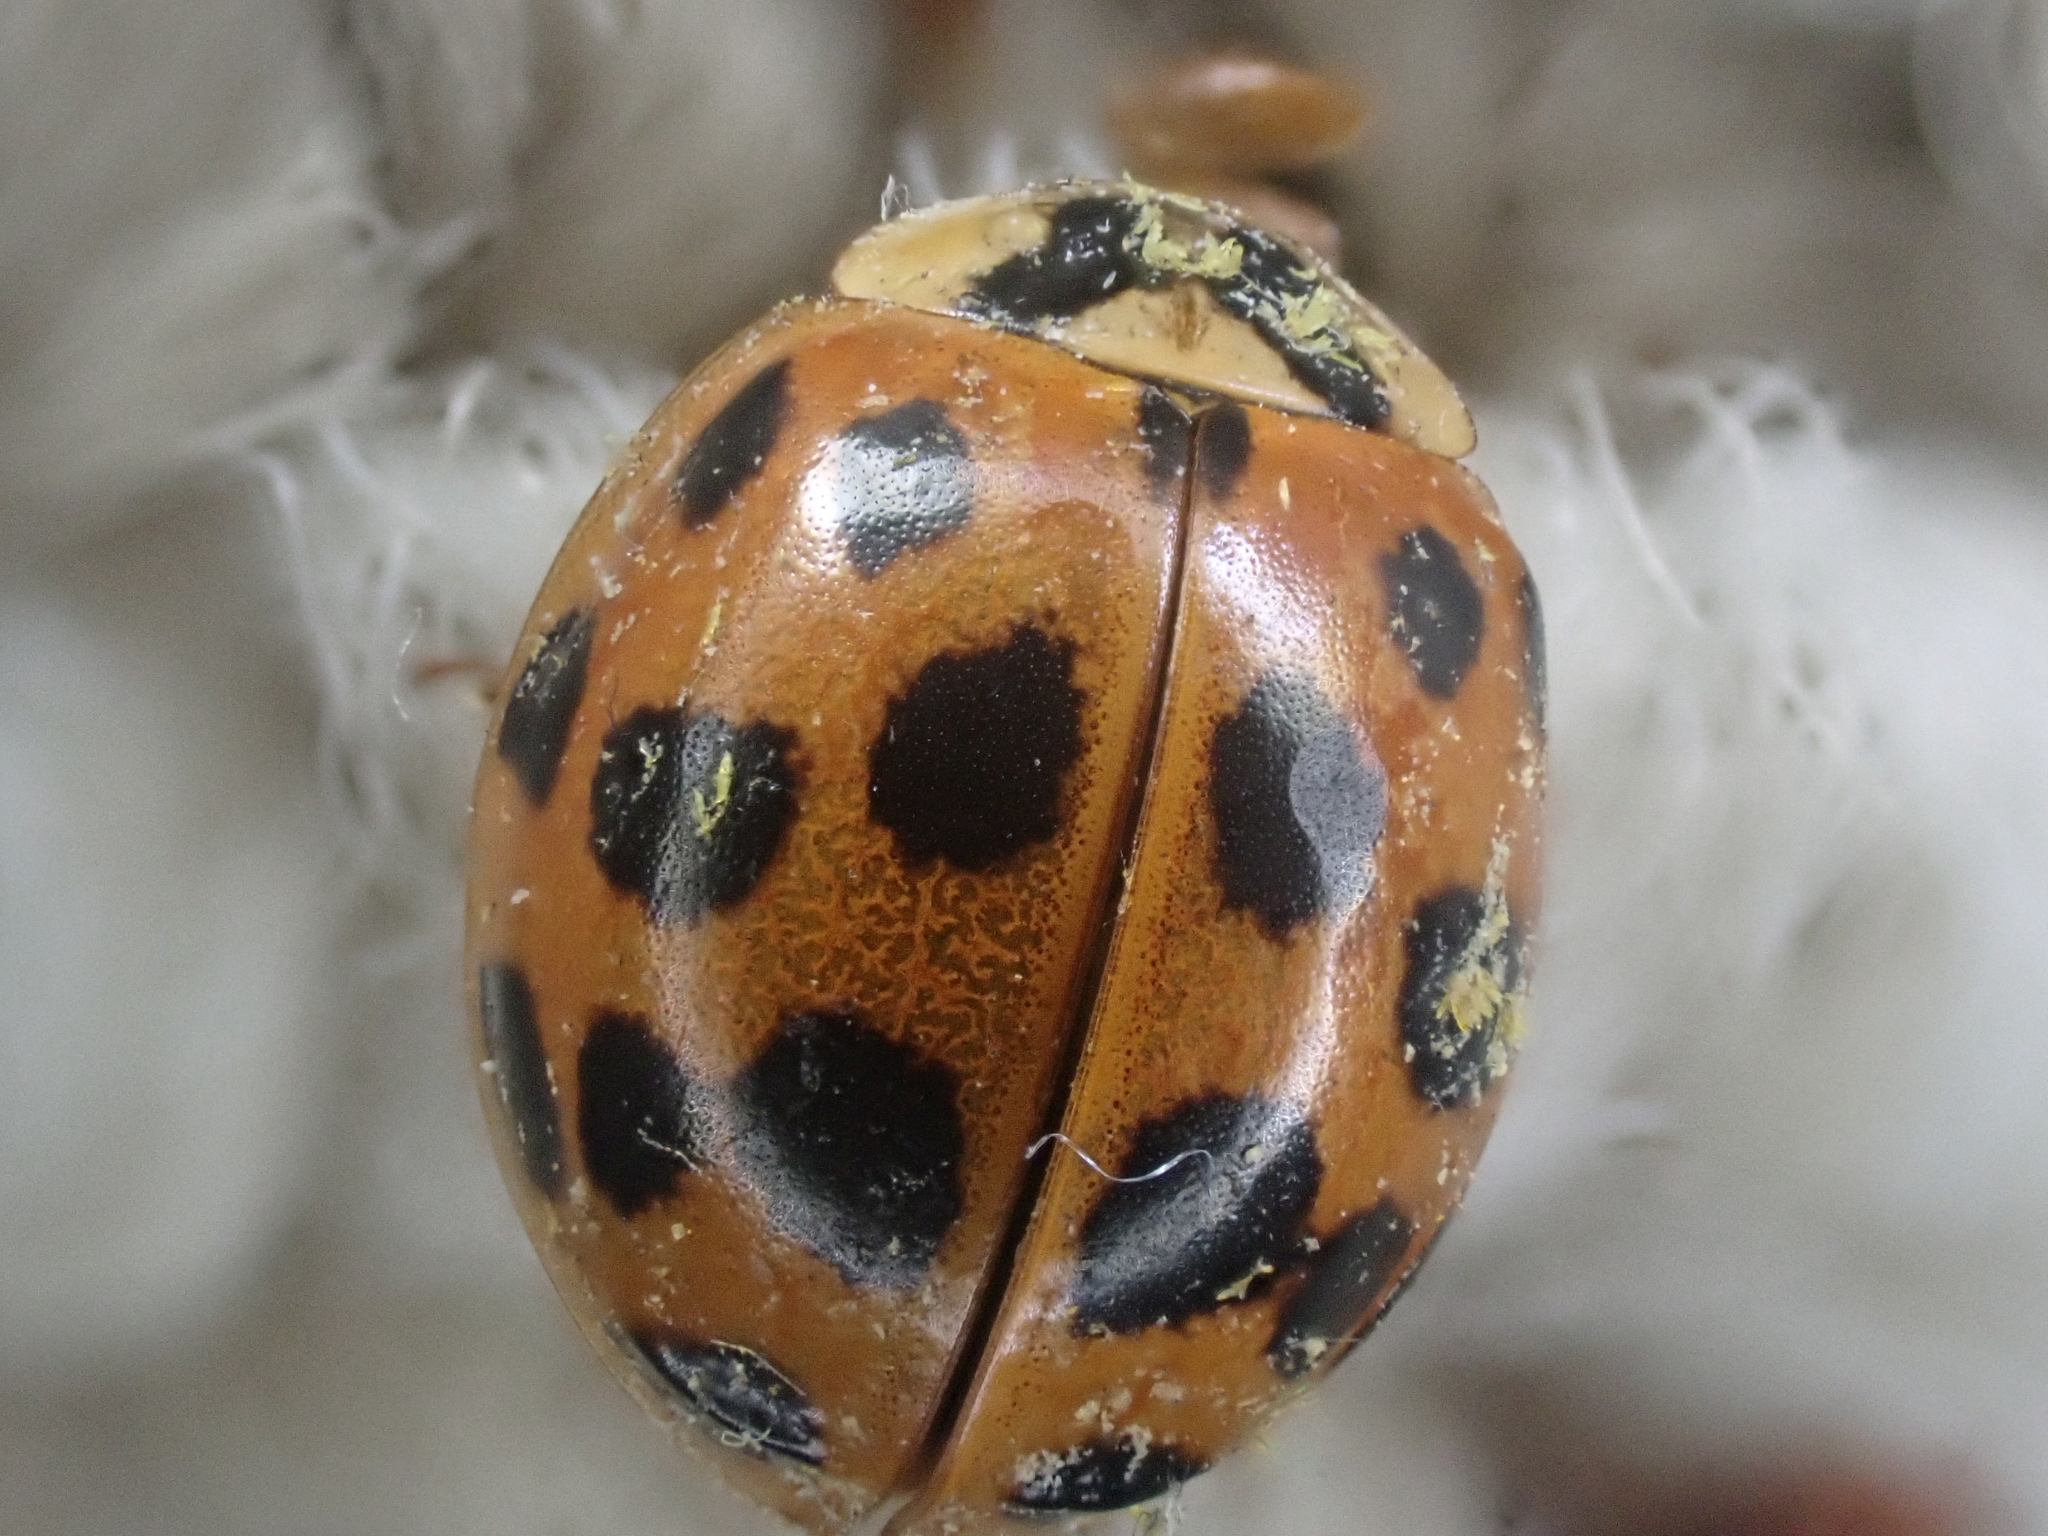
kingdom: Animalia
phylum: Arthropoda
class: Insecta
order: Coleoptera
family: Coccinellidae
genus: Harmonia
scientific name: Harmonia axyridis
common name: Harlequin ladybird
